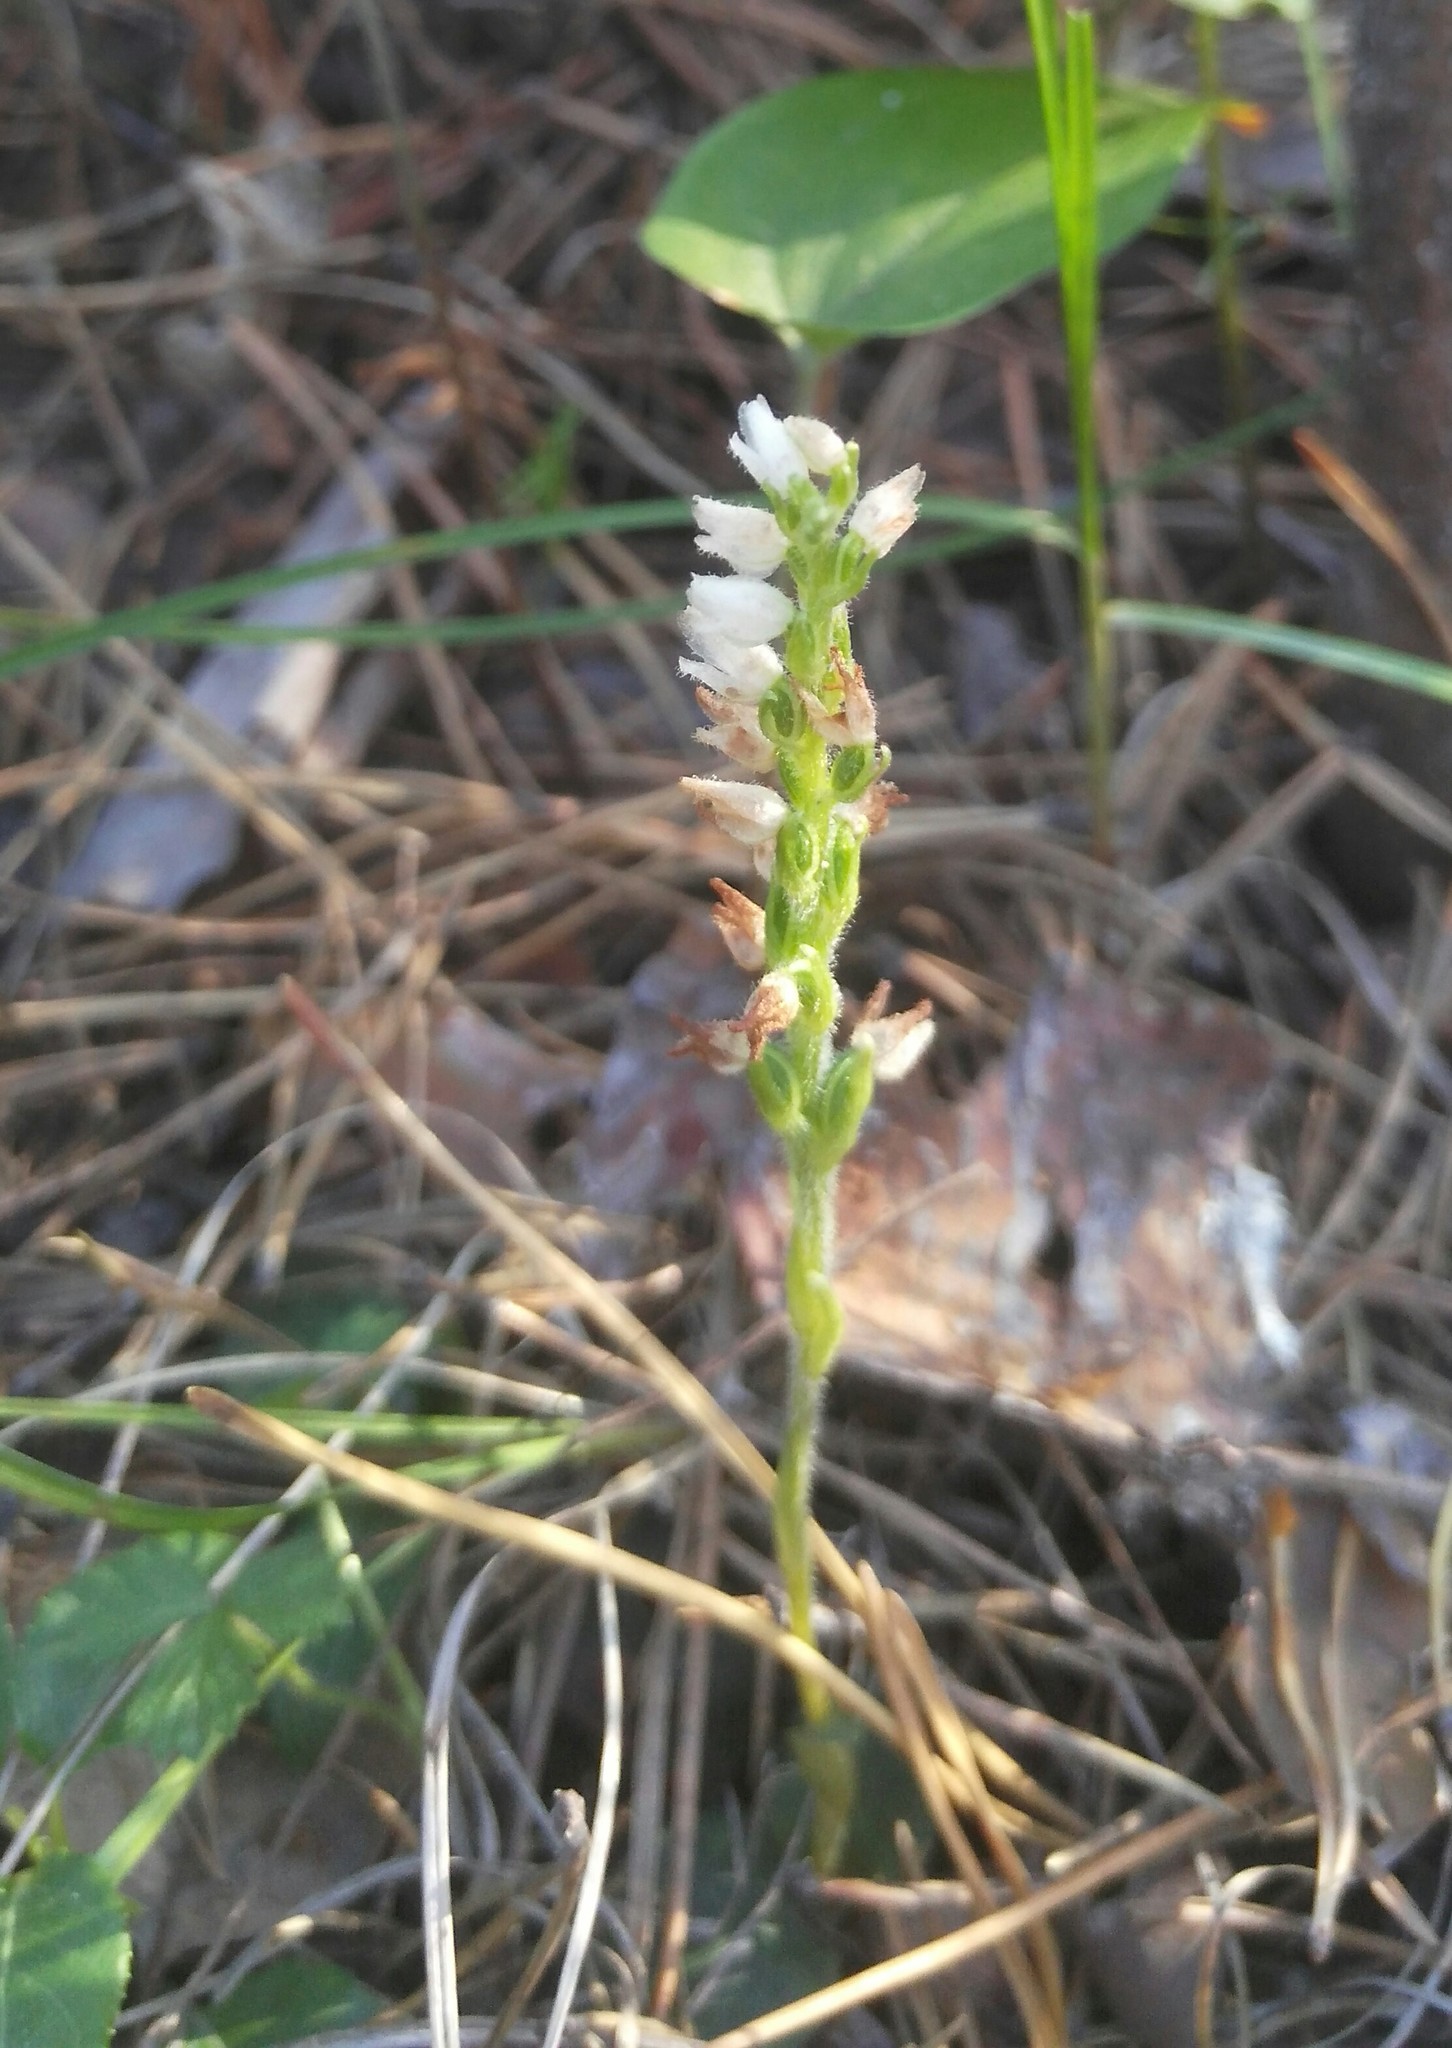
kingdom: Plantae
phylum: Tracheophyta
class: Liliopsida
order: Asparagales
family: Orchidaceae
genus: Goodyera
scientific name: Goodyera repens
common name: Creeping lady's-tresses
